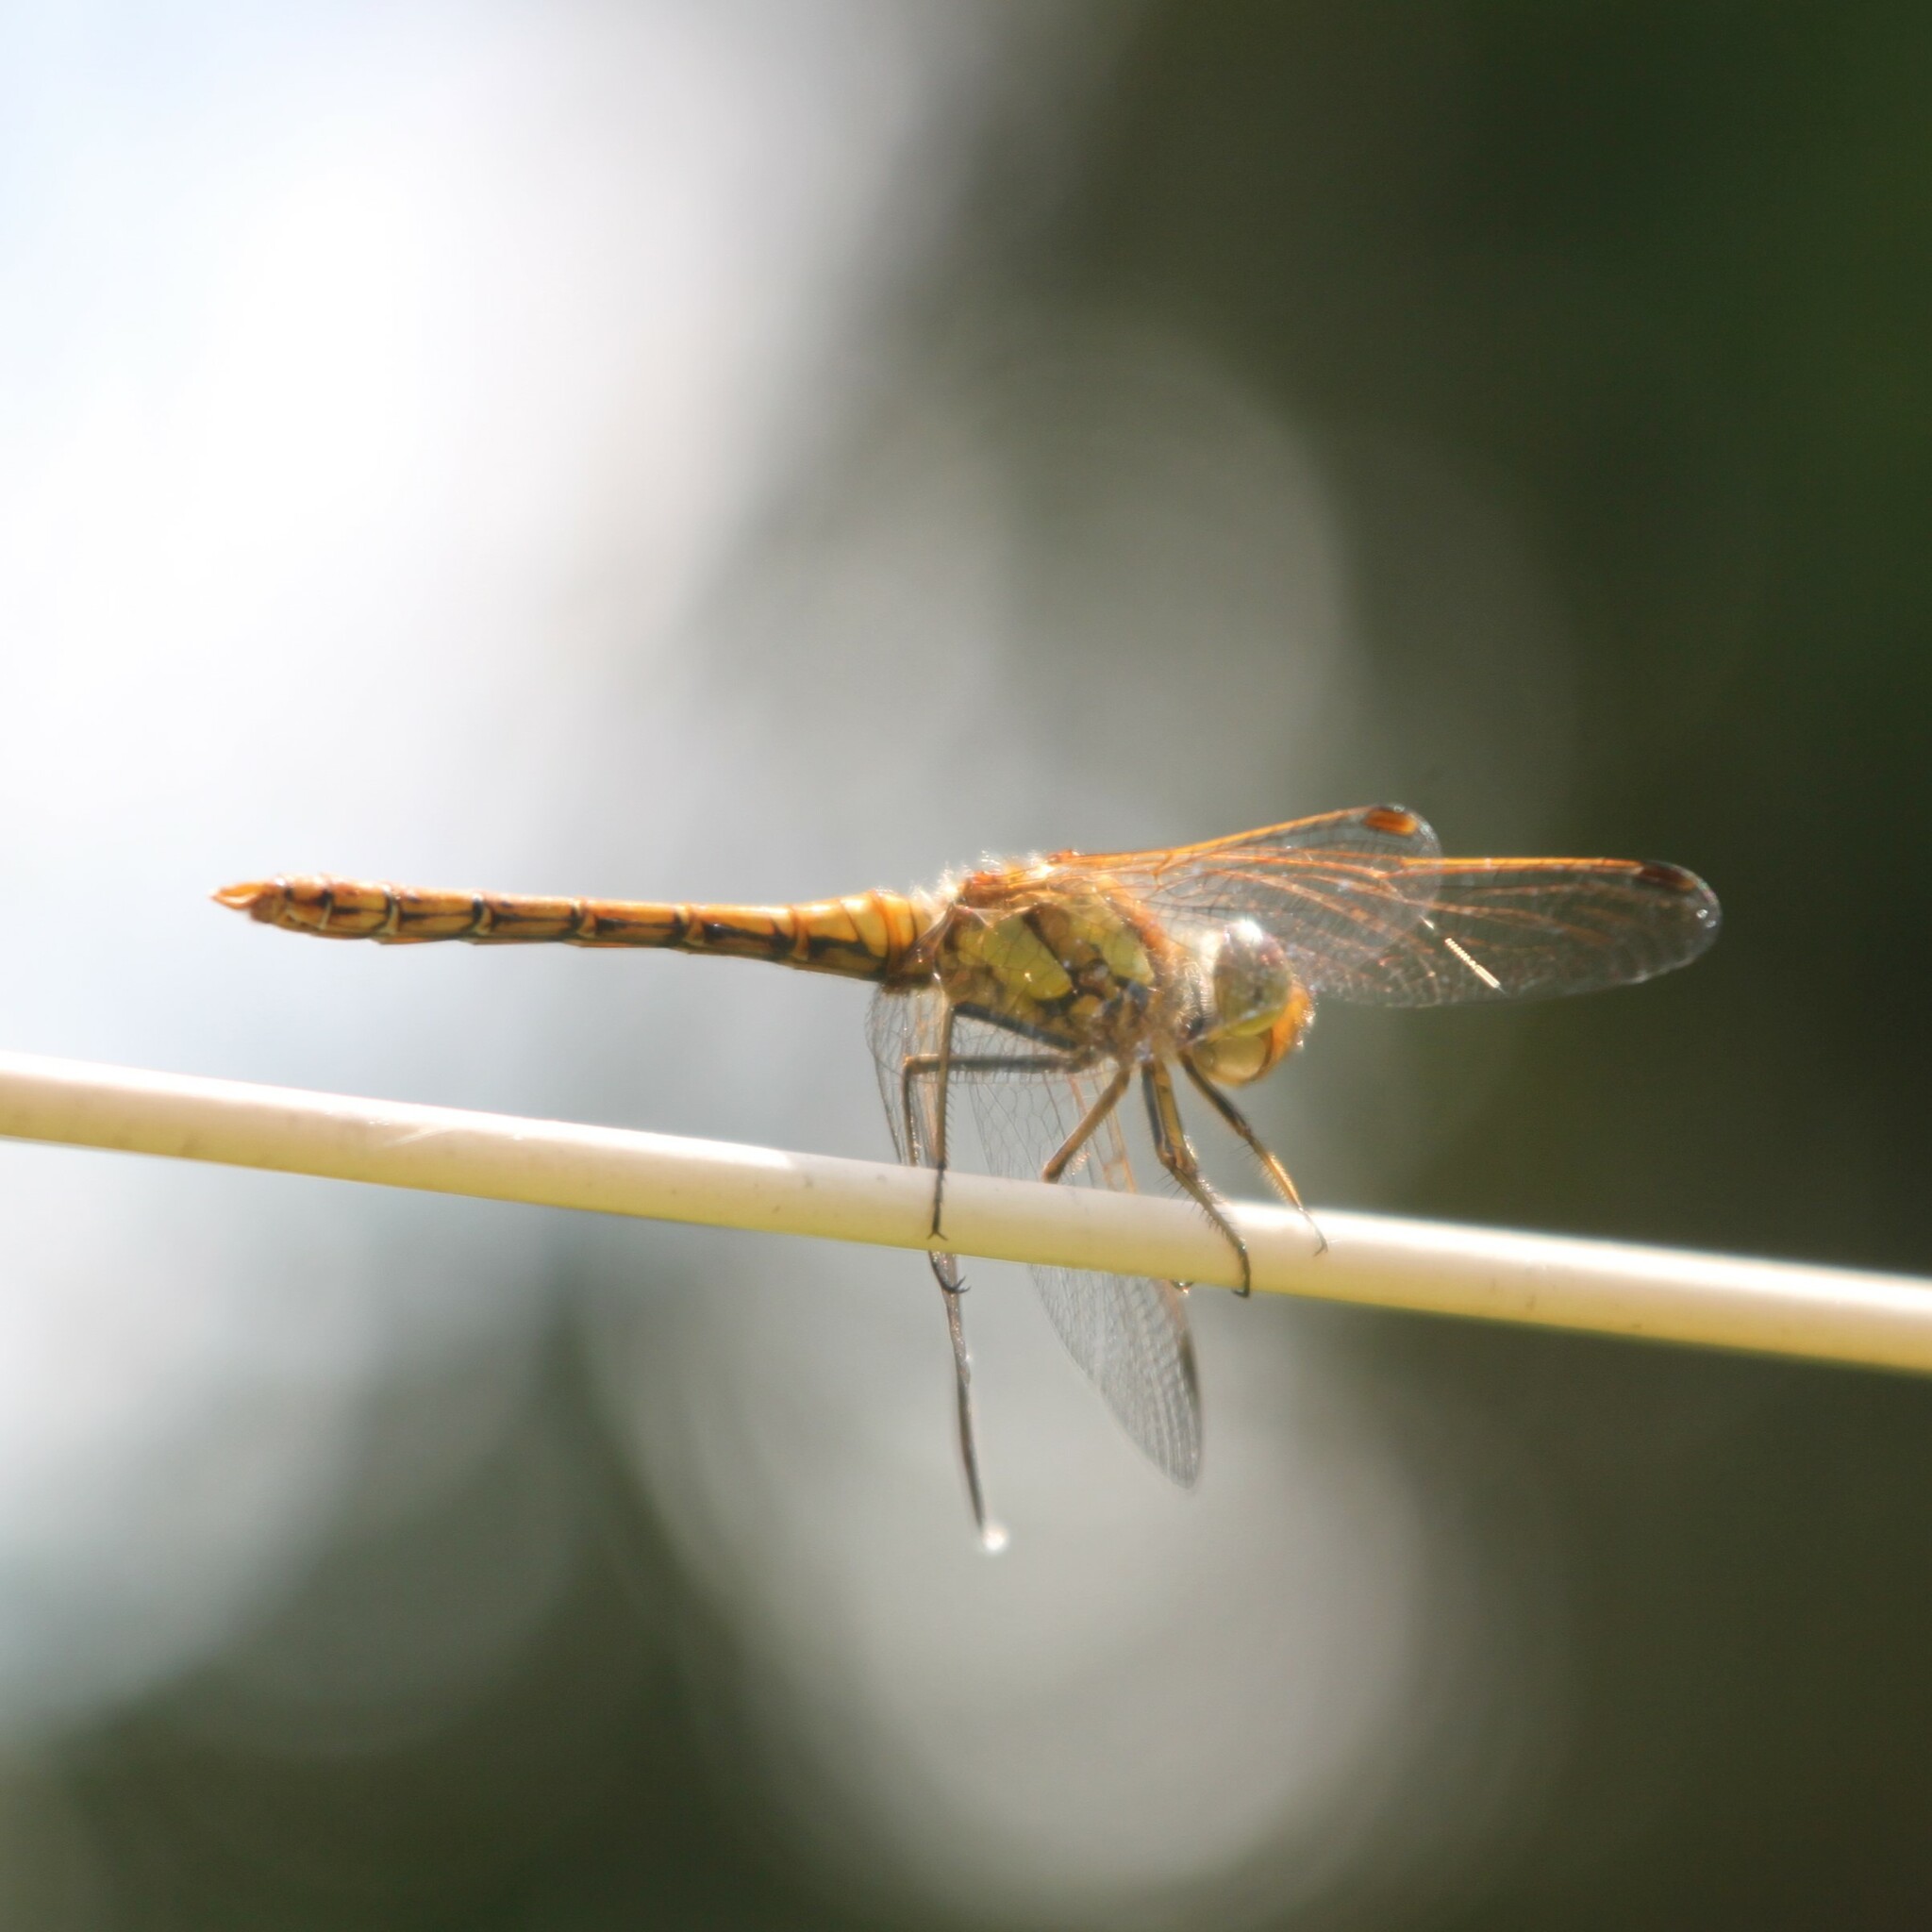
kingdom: Animalia
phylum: Arthropoda
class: Insecta
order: Odonata
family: Libellulidae
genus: Sympetrum
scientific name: Sympetrum striolatum
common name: Common darter
